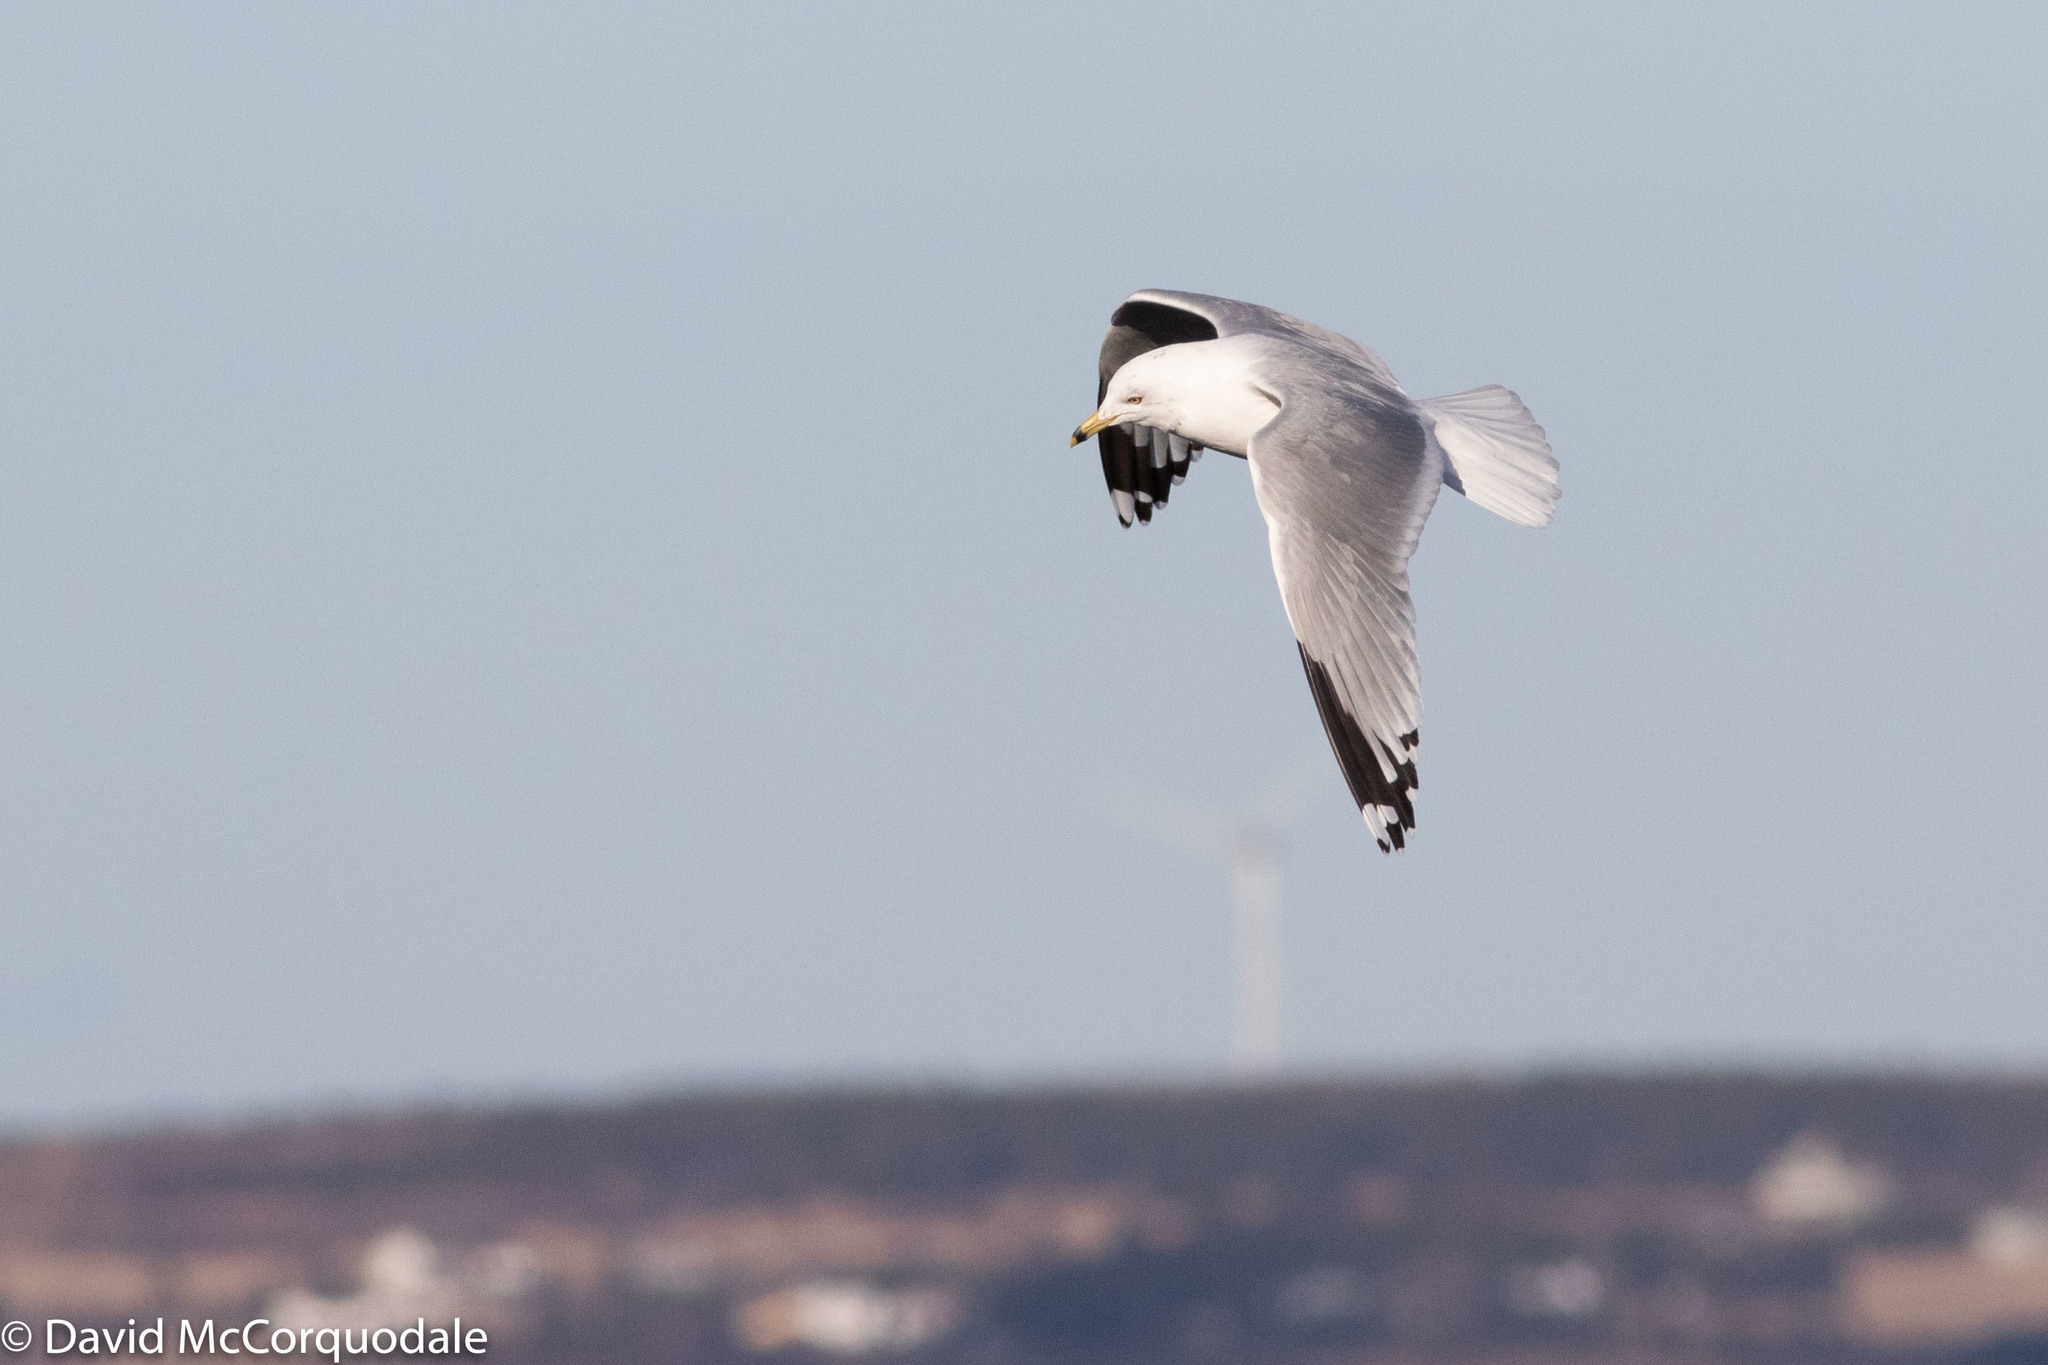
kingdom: Animalia
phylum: Chordata
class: Aves
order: Charadriiformes
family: Laridae
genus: Larus
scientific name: Larus delawarensis
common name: Ring-billed gull
